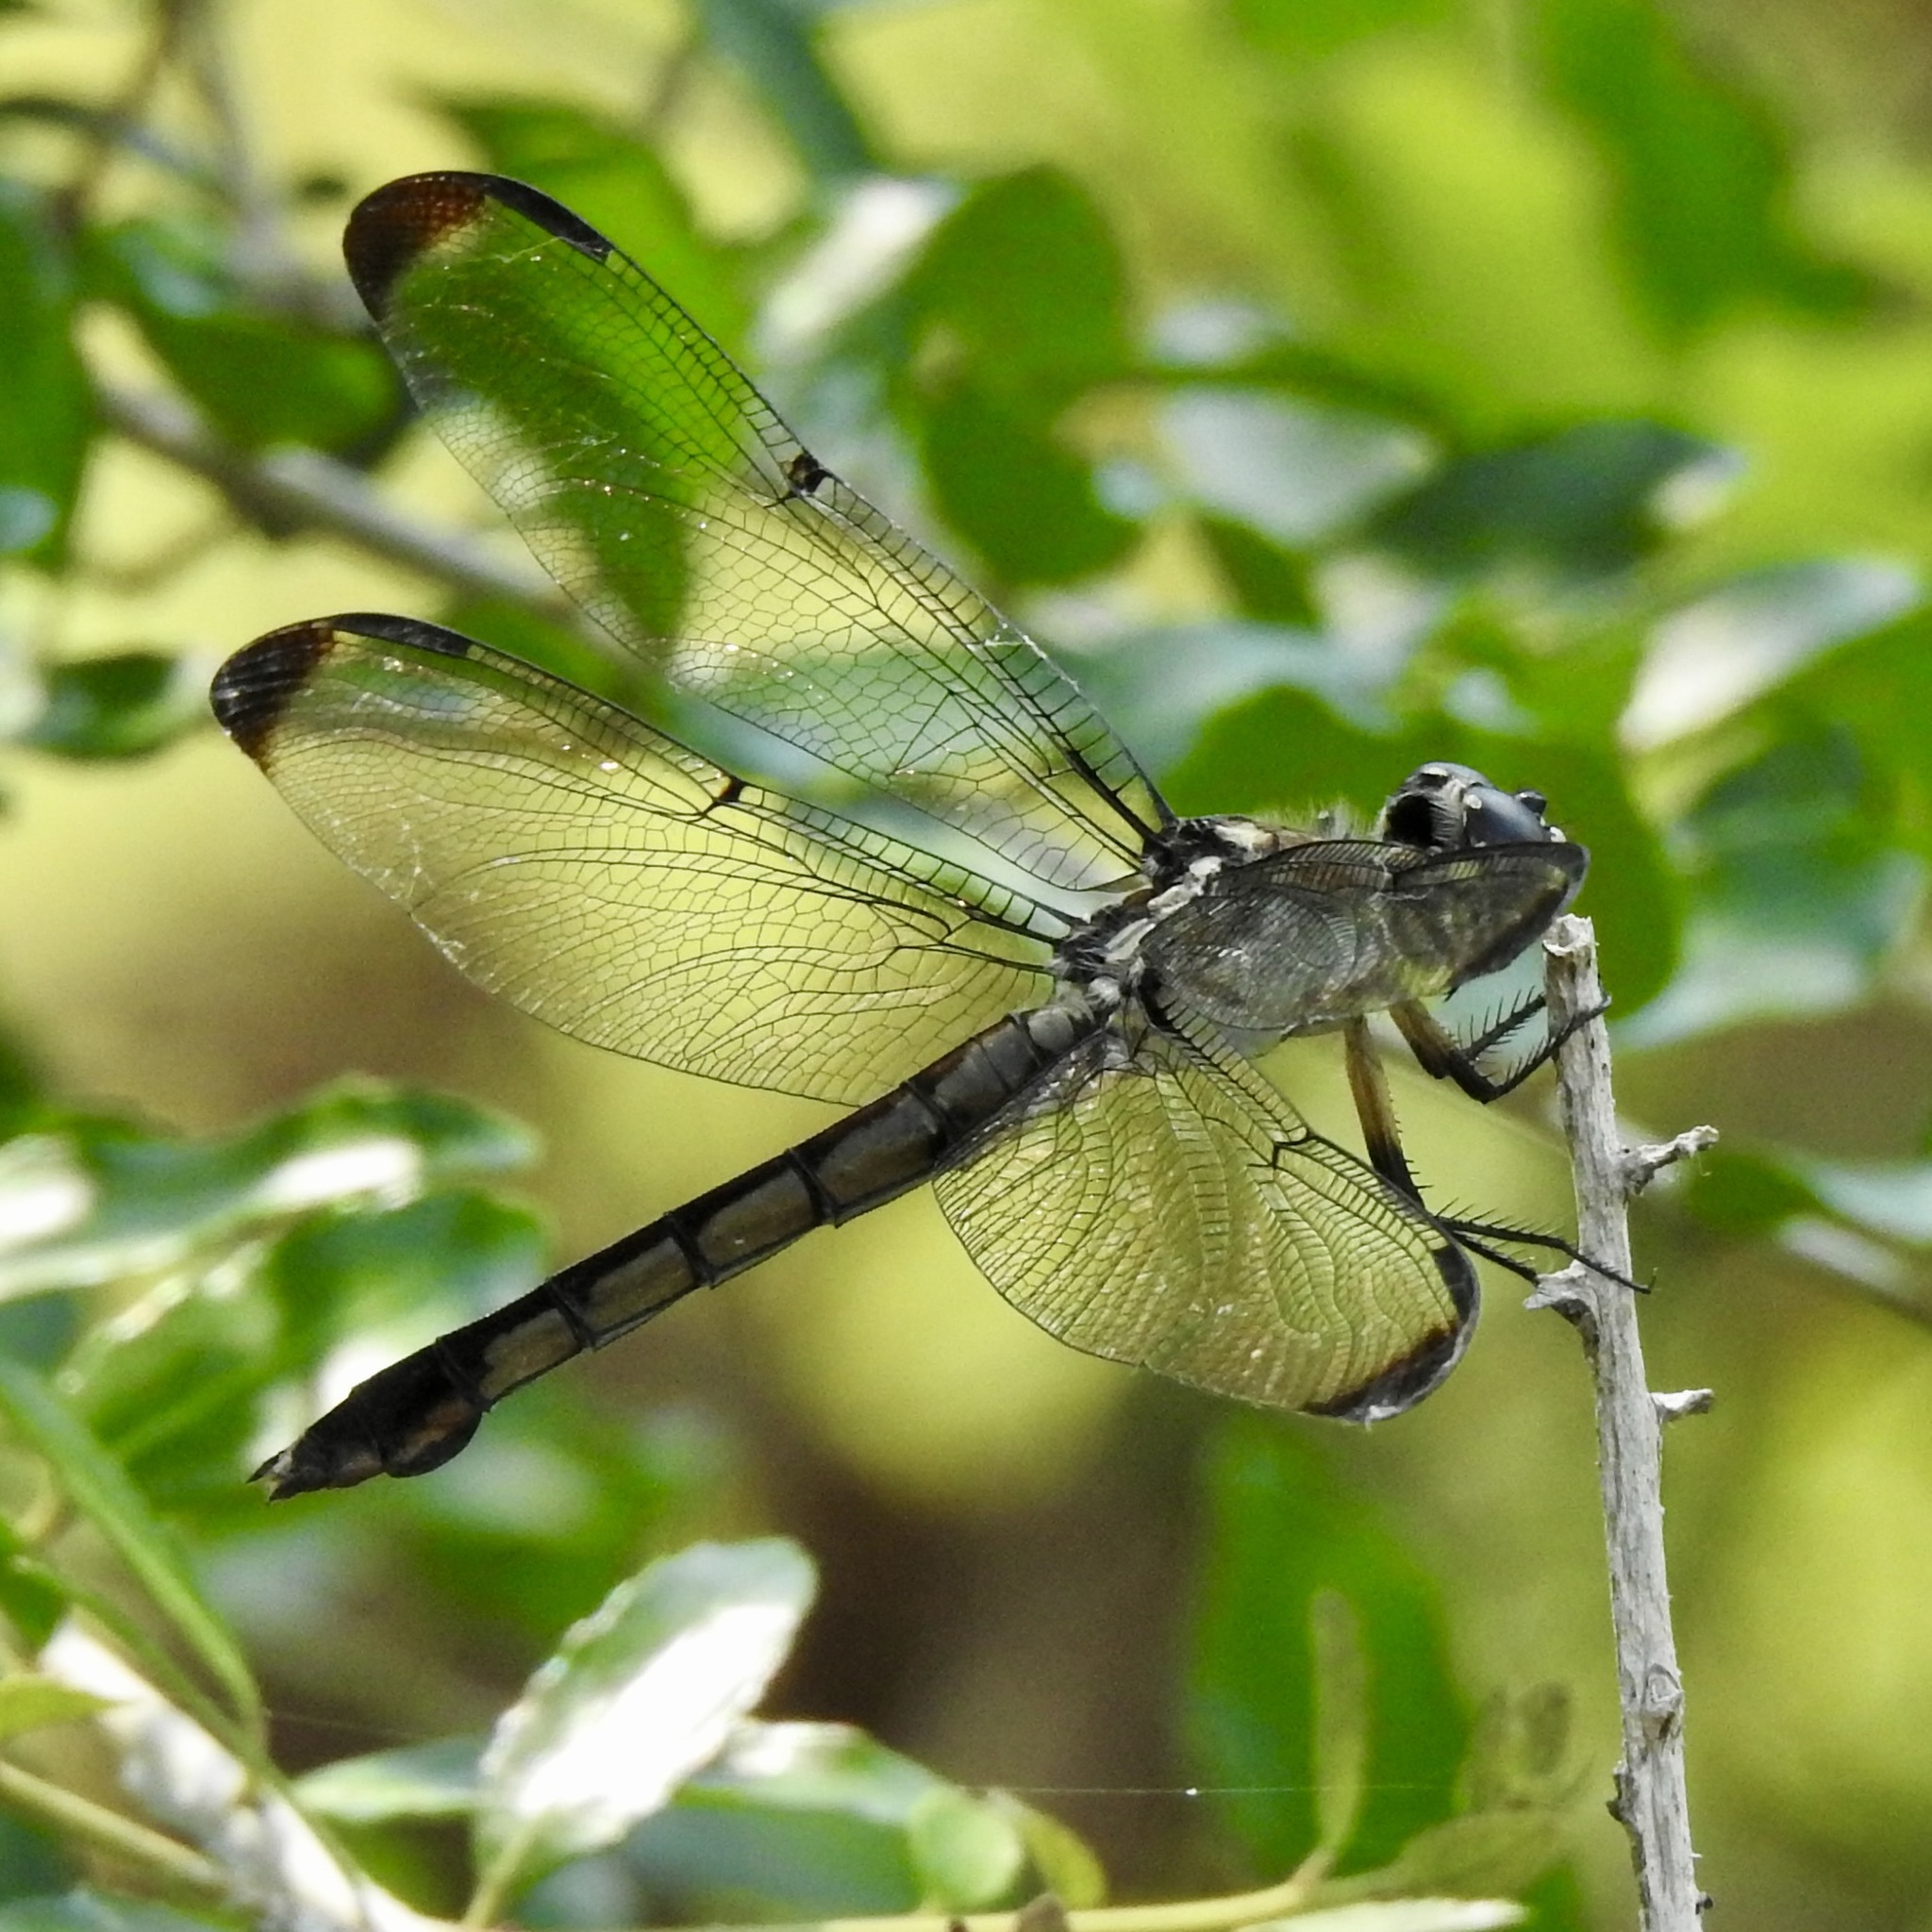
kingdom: Animalia
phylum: Arthropoda
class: Insecta
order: Odonata
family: Libellulidae
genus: Libellula
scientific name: Libellula vibrans
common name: Great blue skimmer
